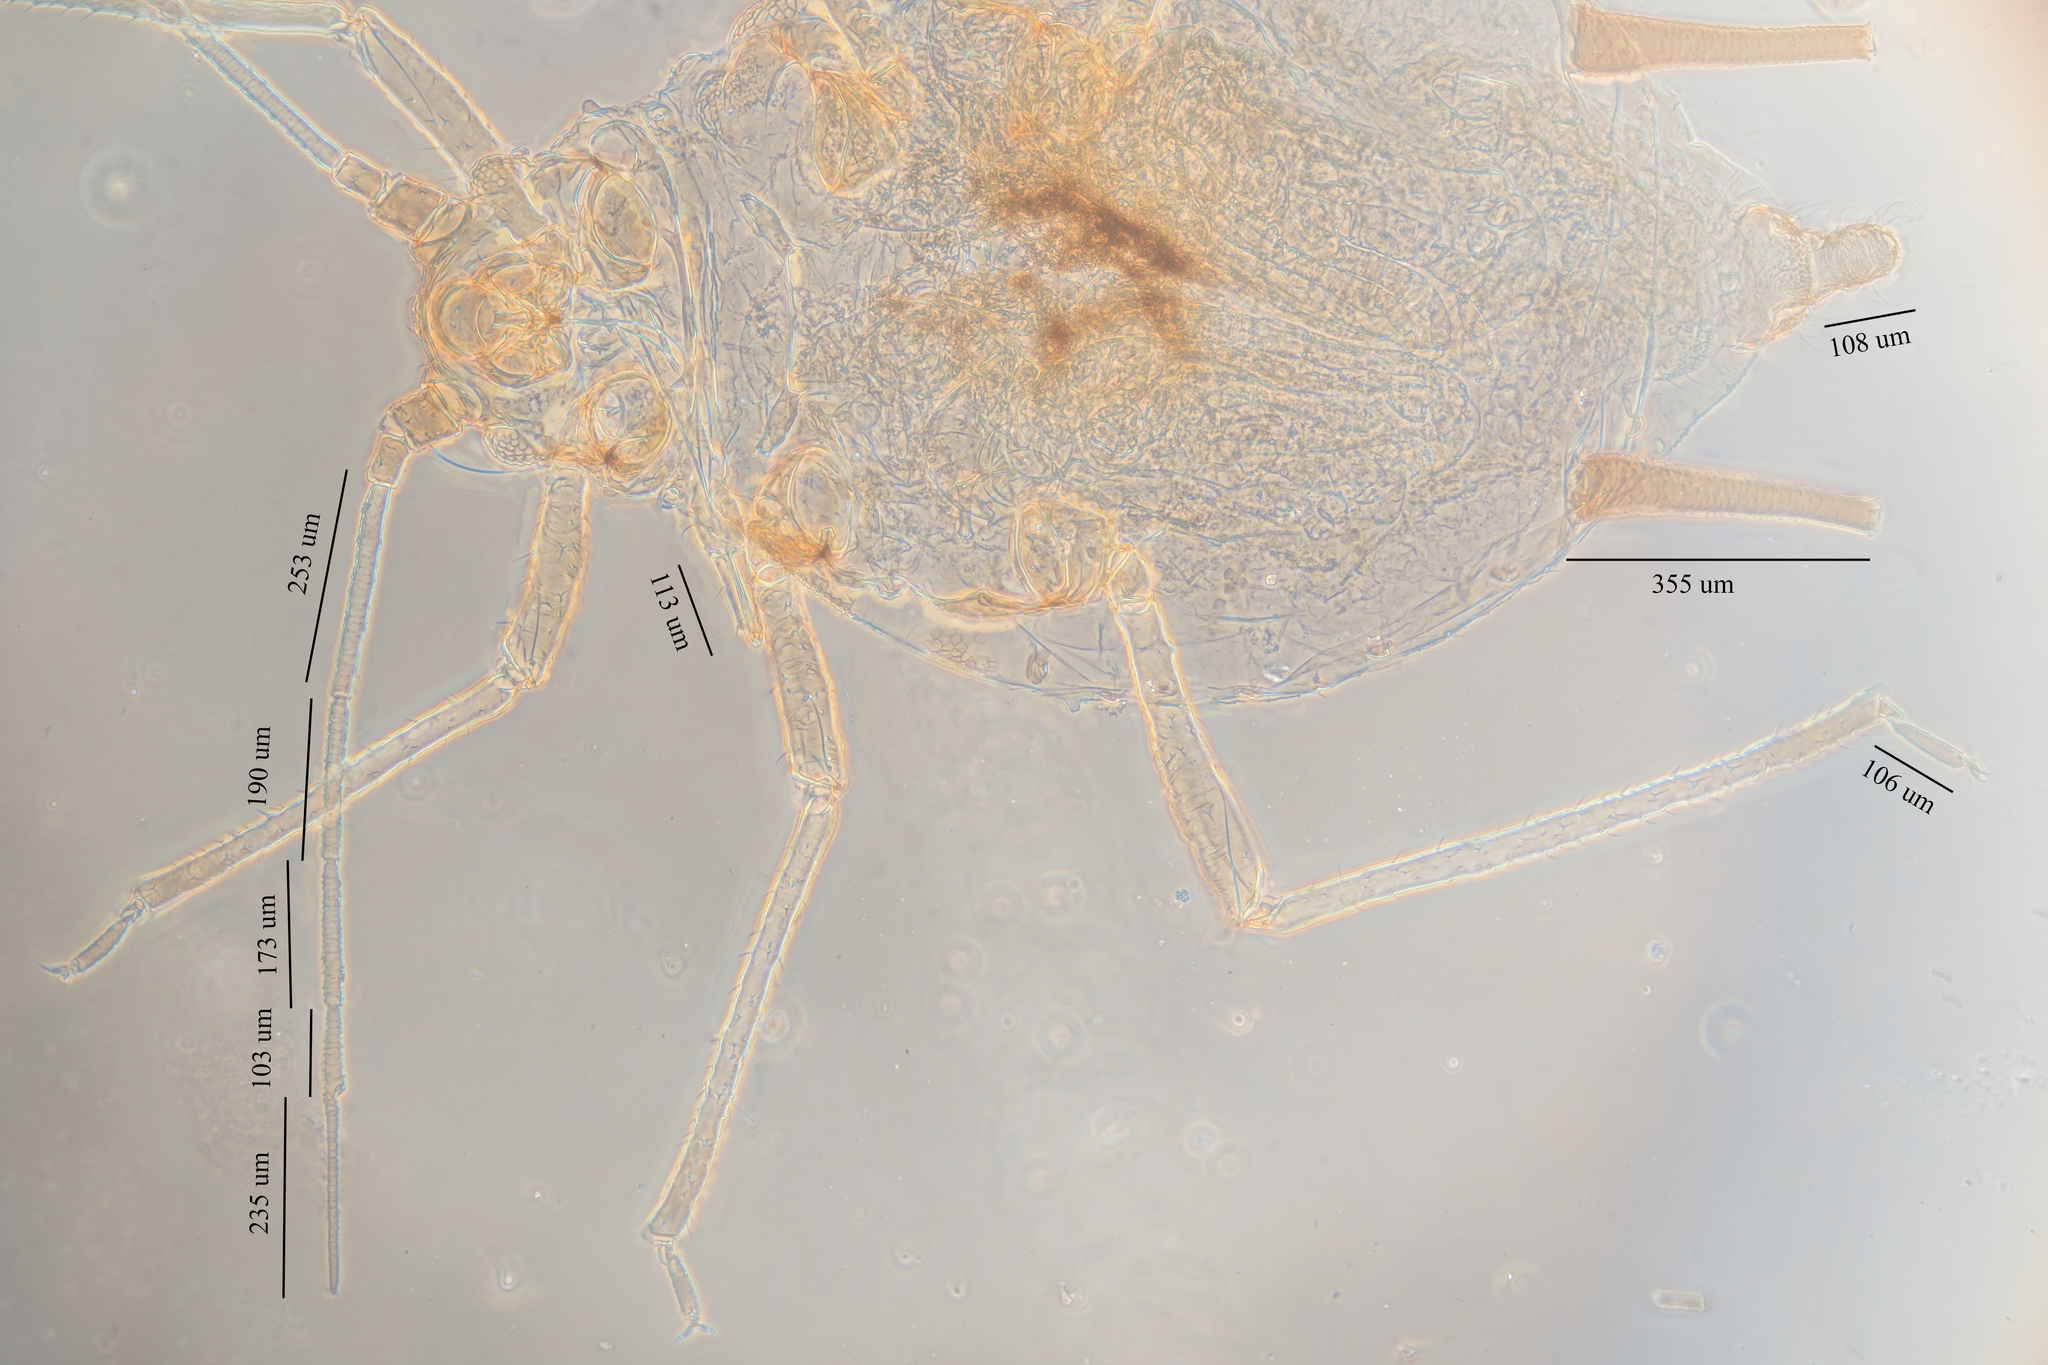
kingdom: Animalia
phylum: Arthropoda
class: Insecta
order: Hemiptera
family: Aphididae
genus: Aphis
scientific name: Aphis gossypii
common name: Melon aphid
